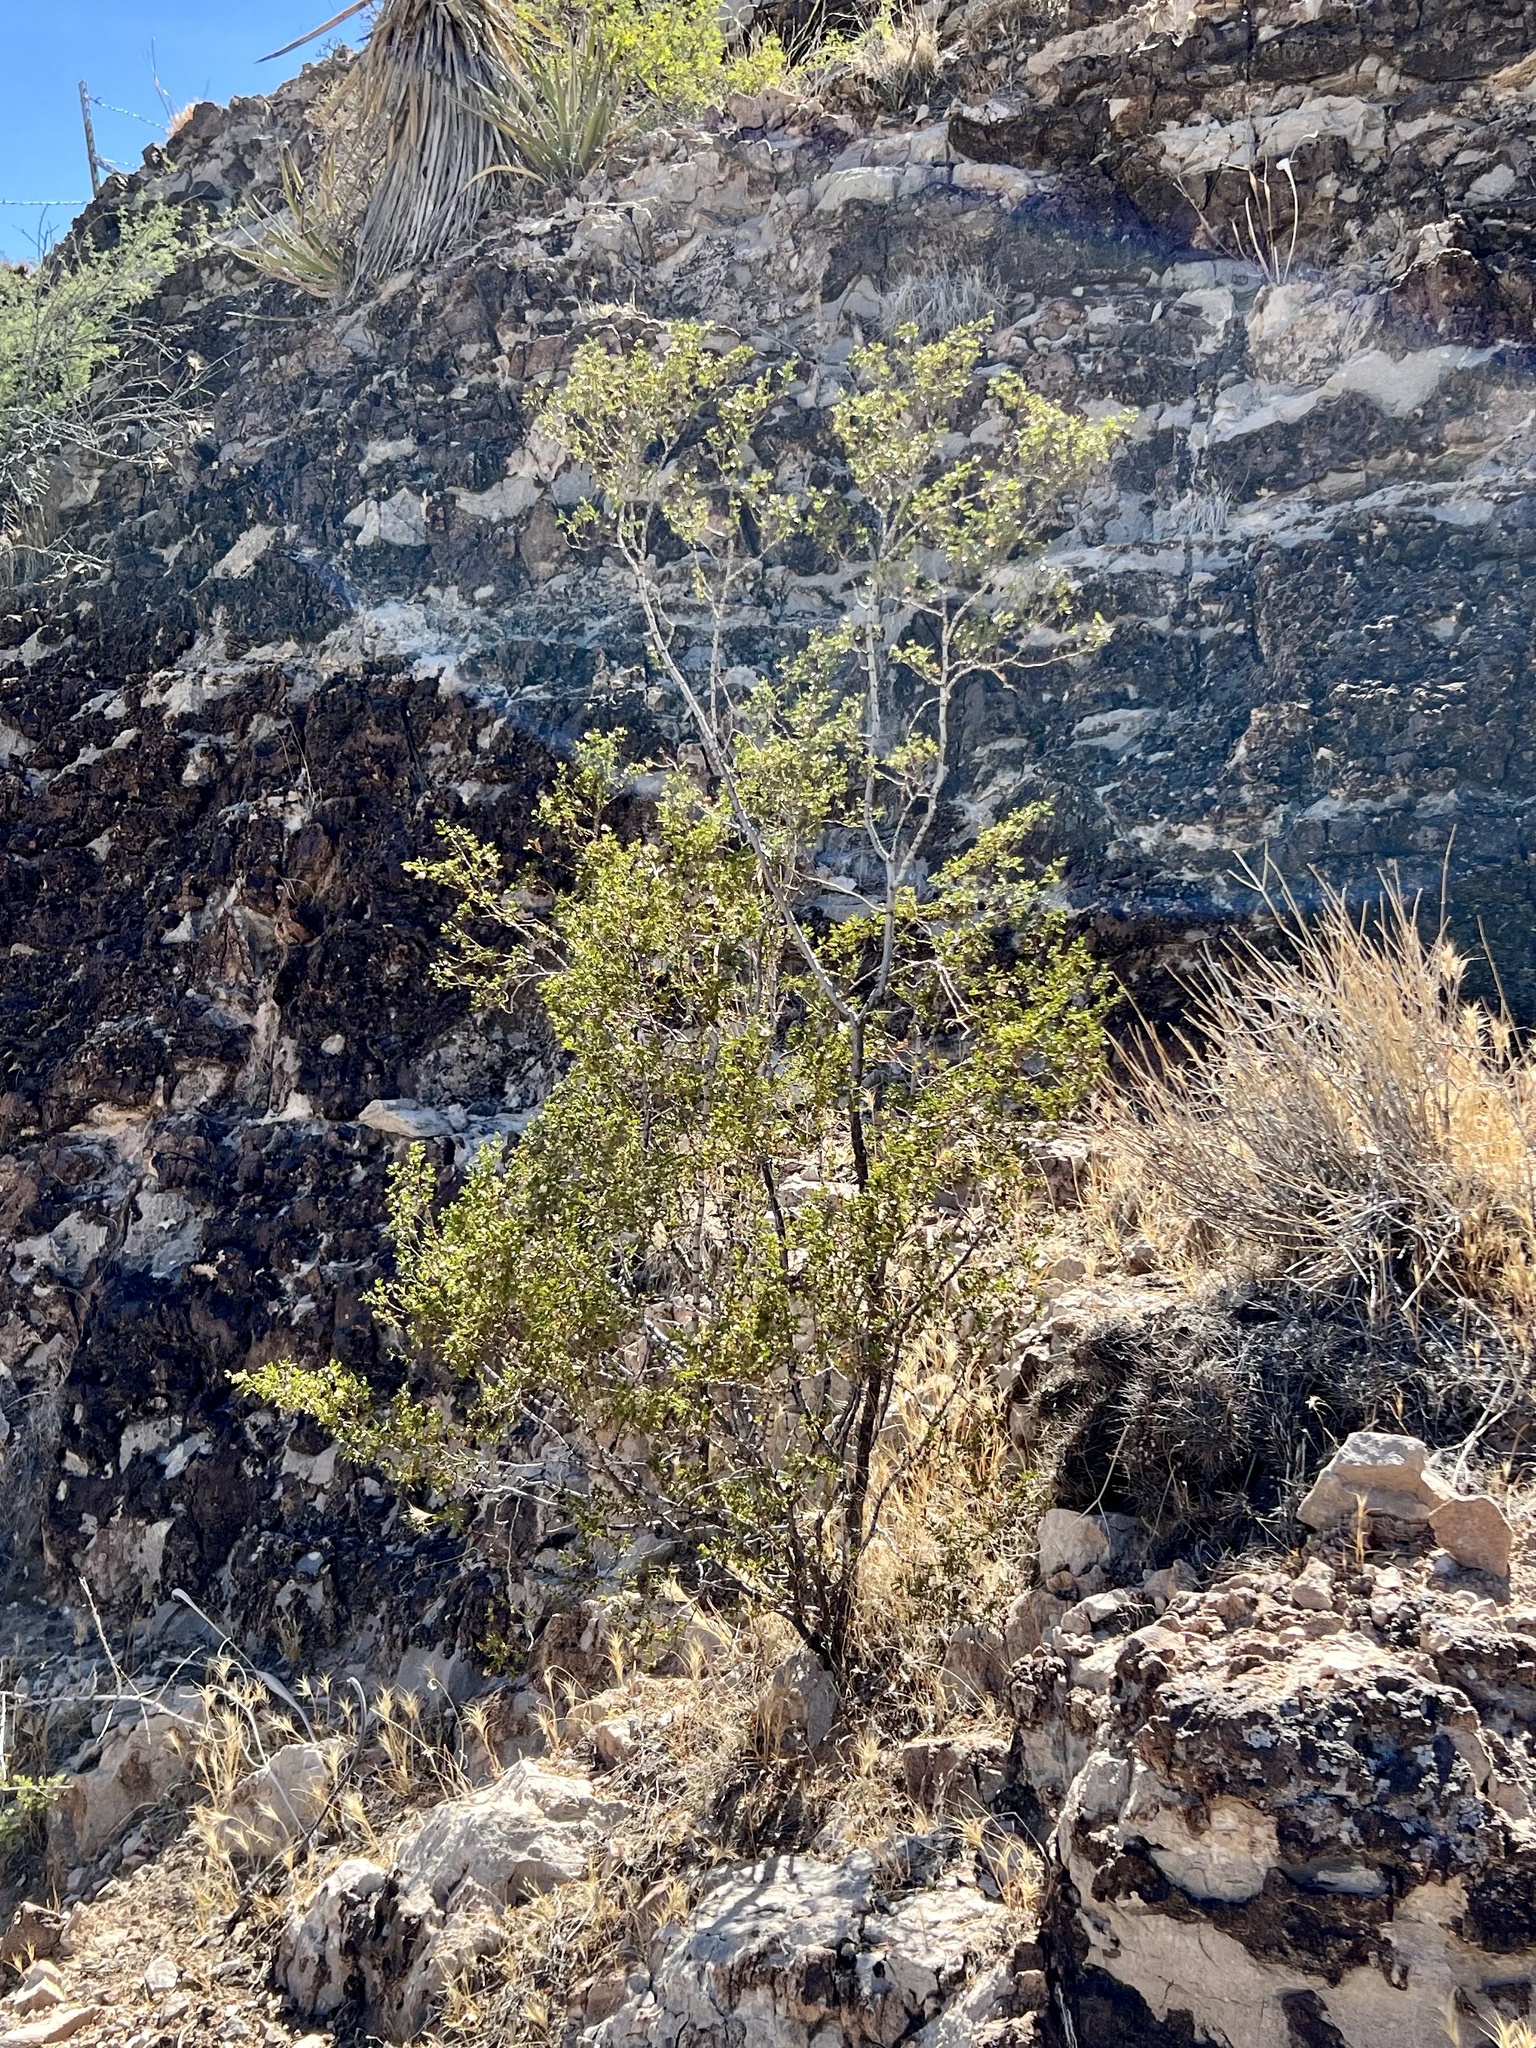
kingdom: Plantae
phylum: Tracheophyta
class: Magnoliopsida
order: Zygophyllales
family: Zygophyllaceae
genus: Larrea
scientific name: Larrea tridentata
